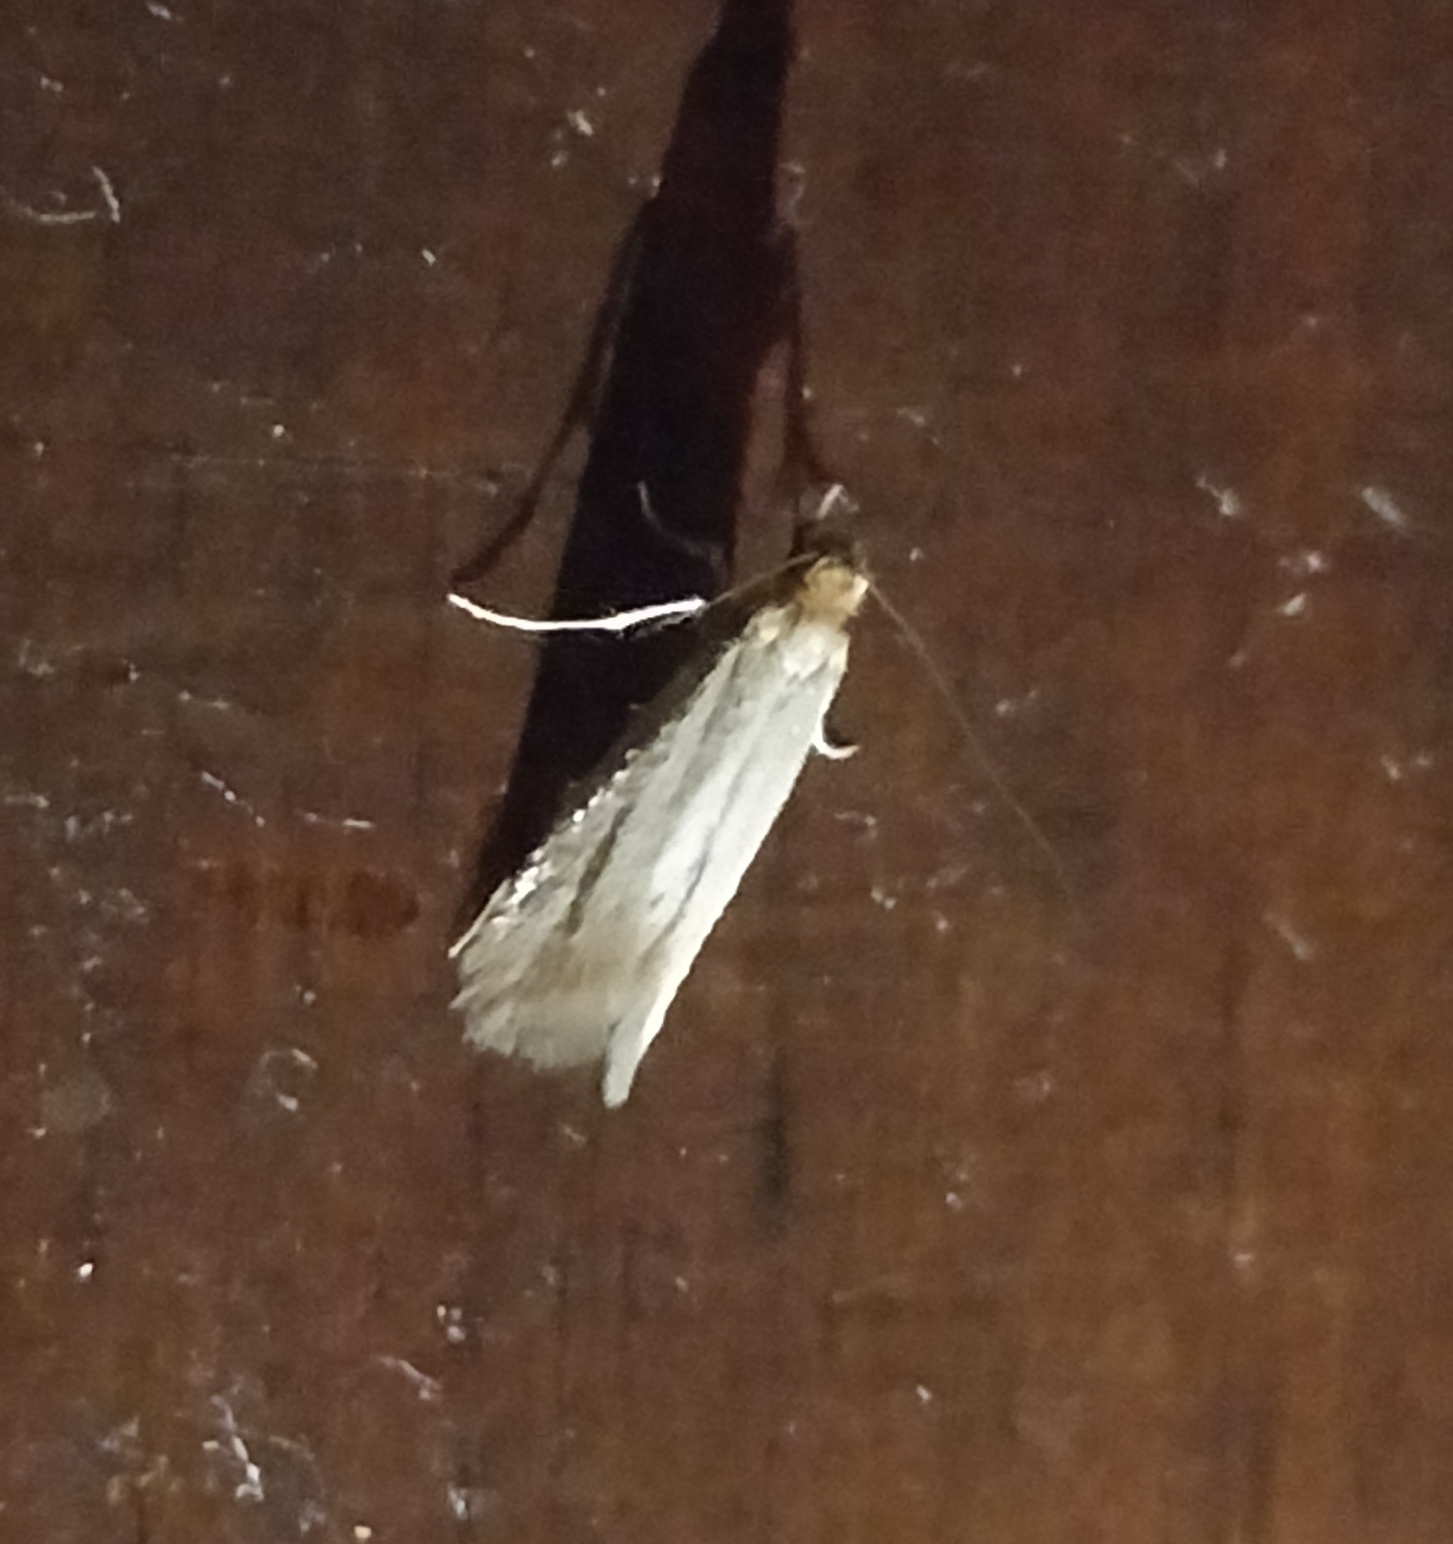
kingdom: Animalia
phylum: Arthropoda
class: Insecta
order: Lepidoptera
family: Tineidae
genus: Tineola
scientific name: Tineola bisselliella
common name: Webbing clothes moth
